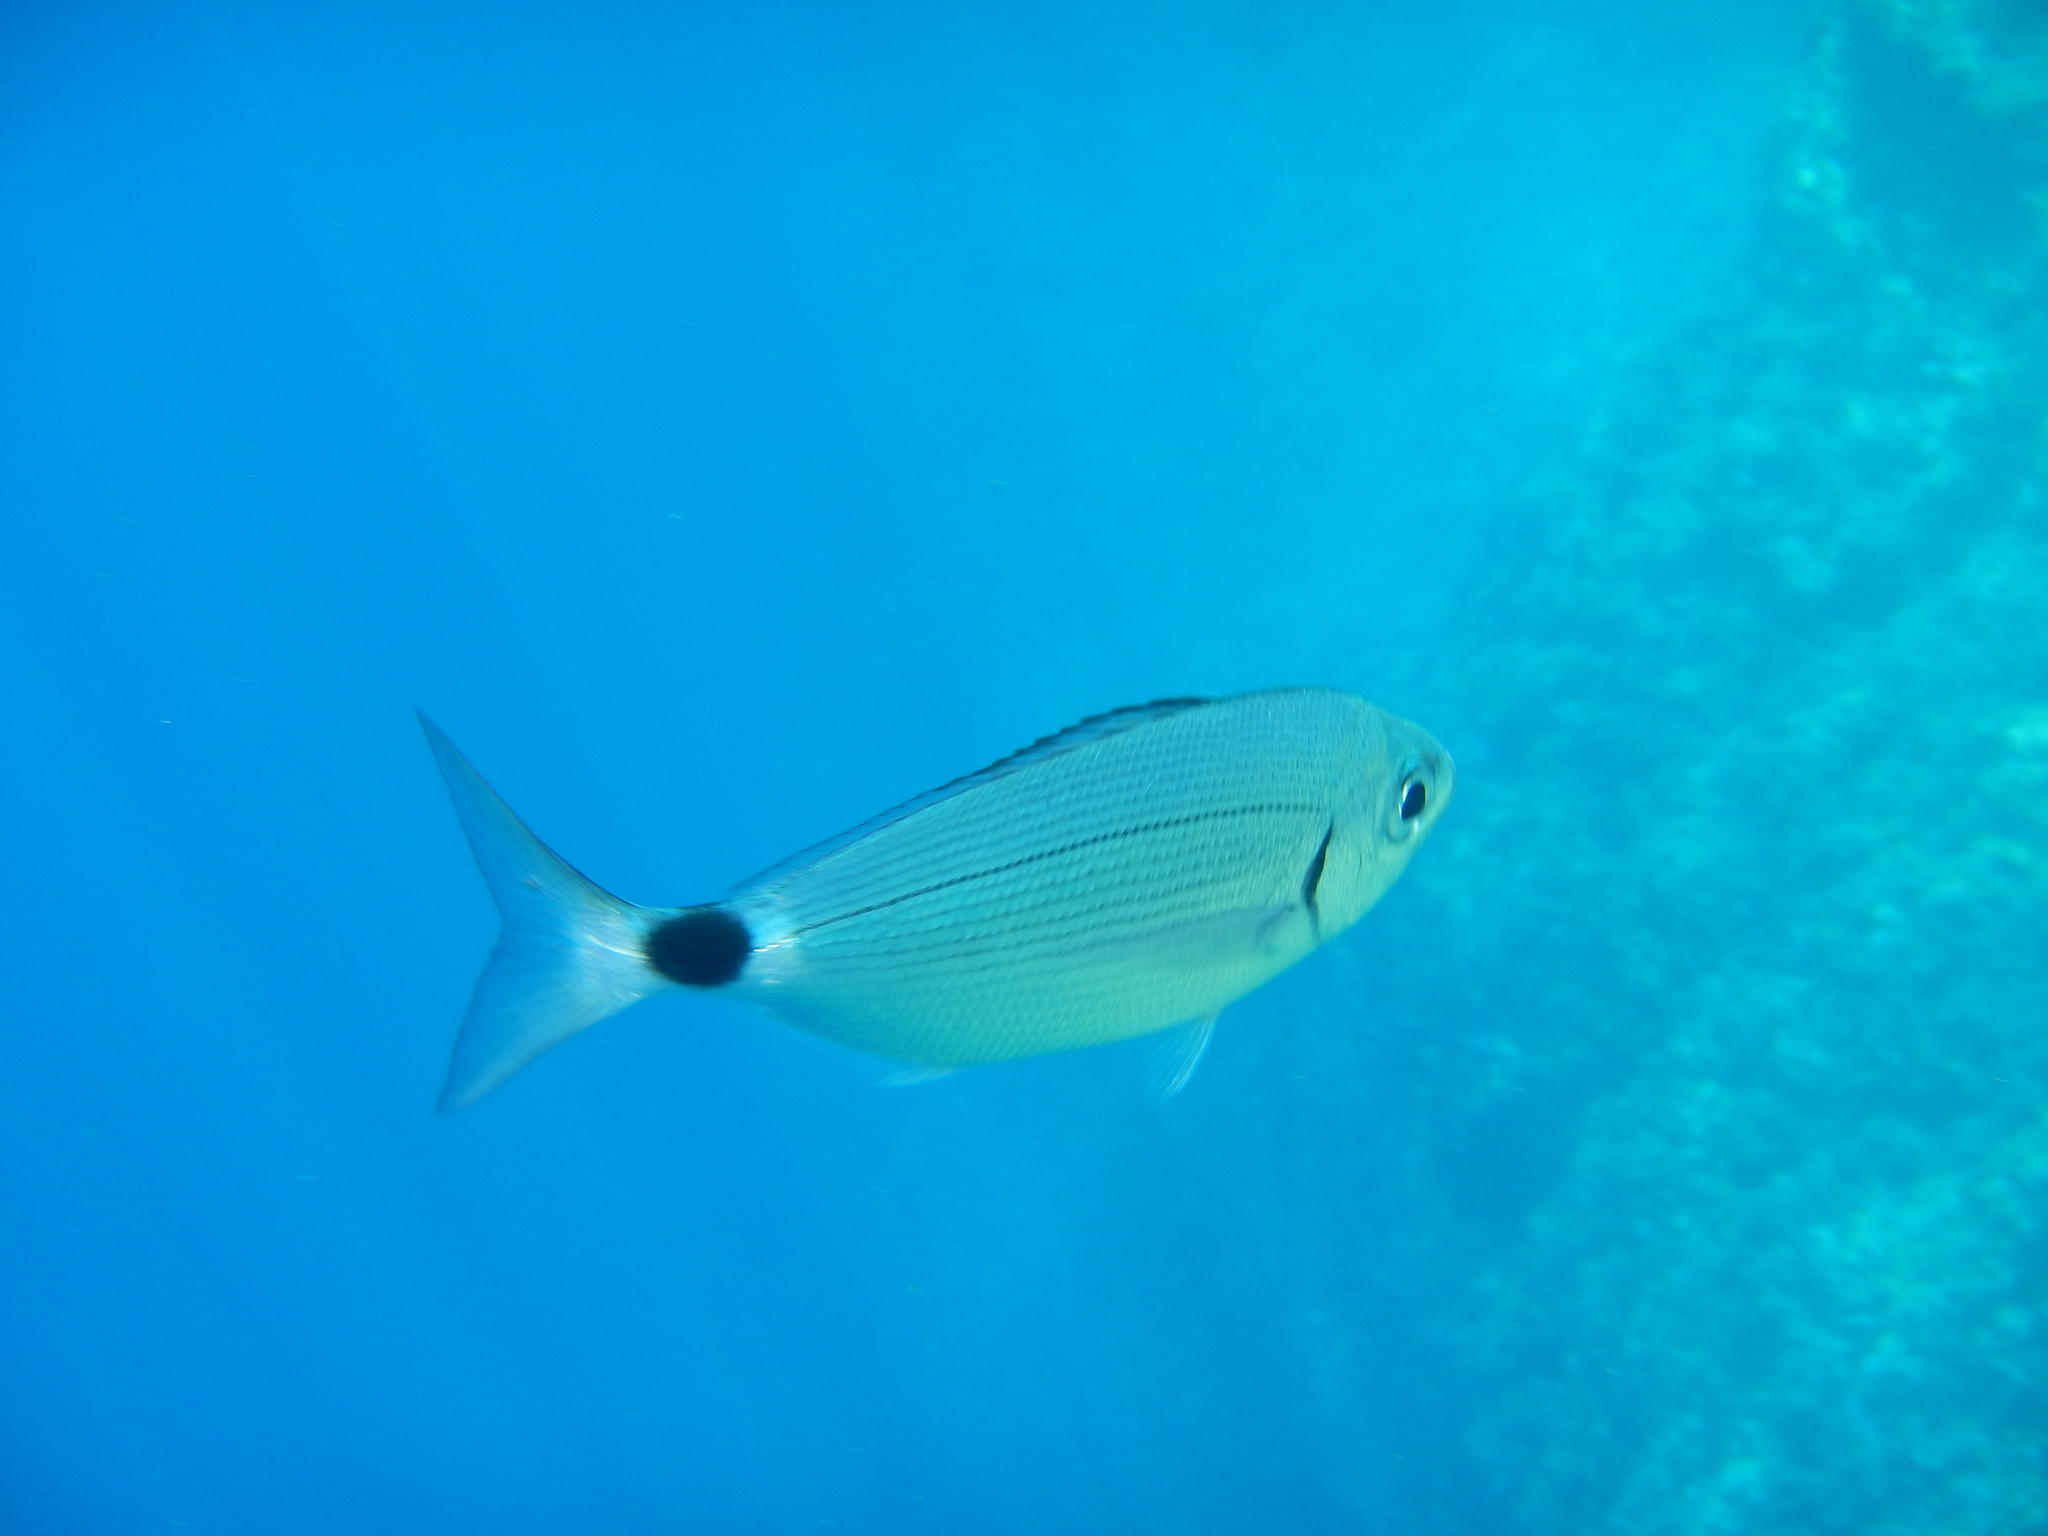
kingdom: Animalia
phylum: Chordata
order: Perciformes
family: Sparidae
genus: Oblada
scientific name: Oblada melanura
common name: Saddled seabream
